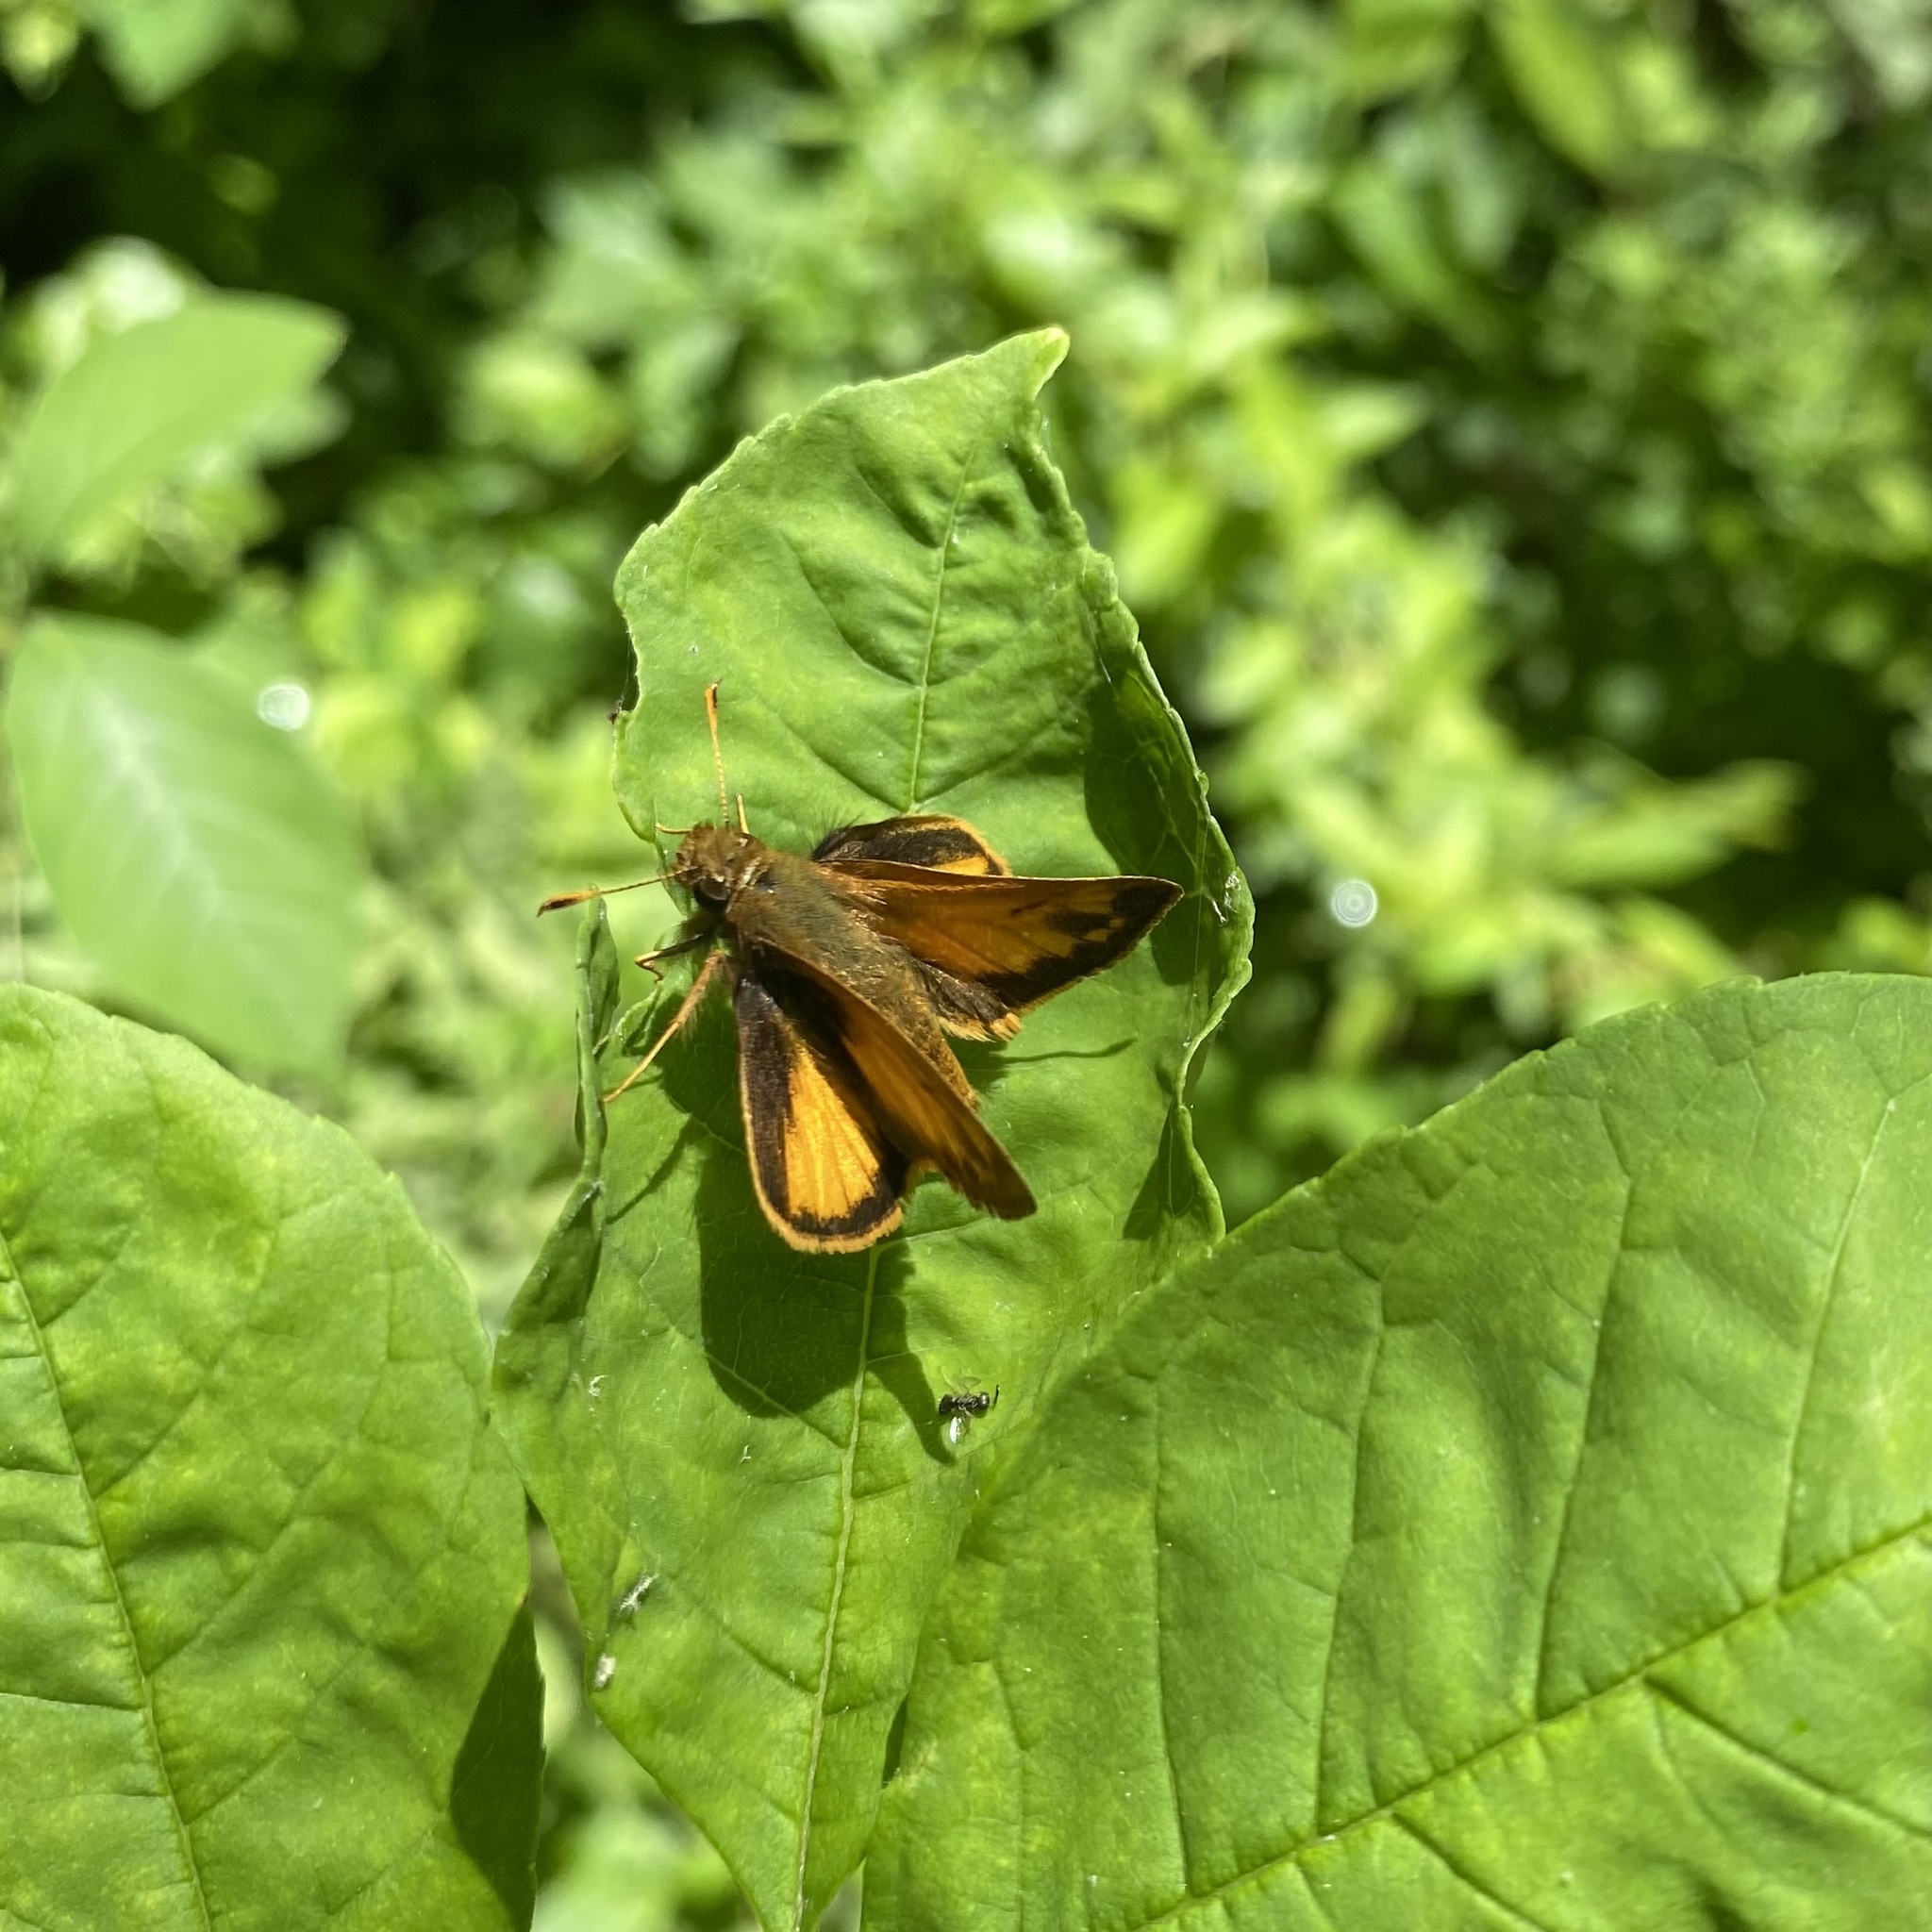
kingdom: Animalia
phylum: Arthropoda
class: Insecta
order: Lepidoptera
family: Hesperiidae
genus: Lon
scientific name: Lon zabulon
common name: Zabulon skipper
